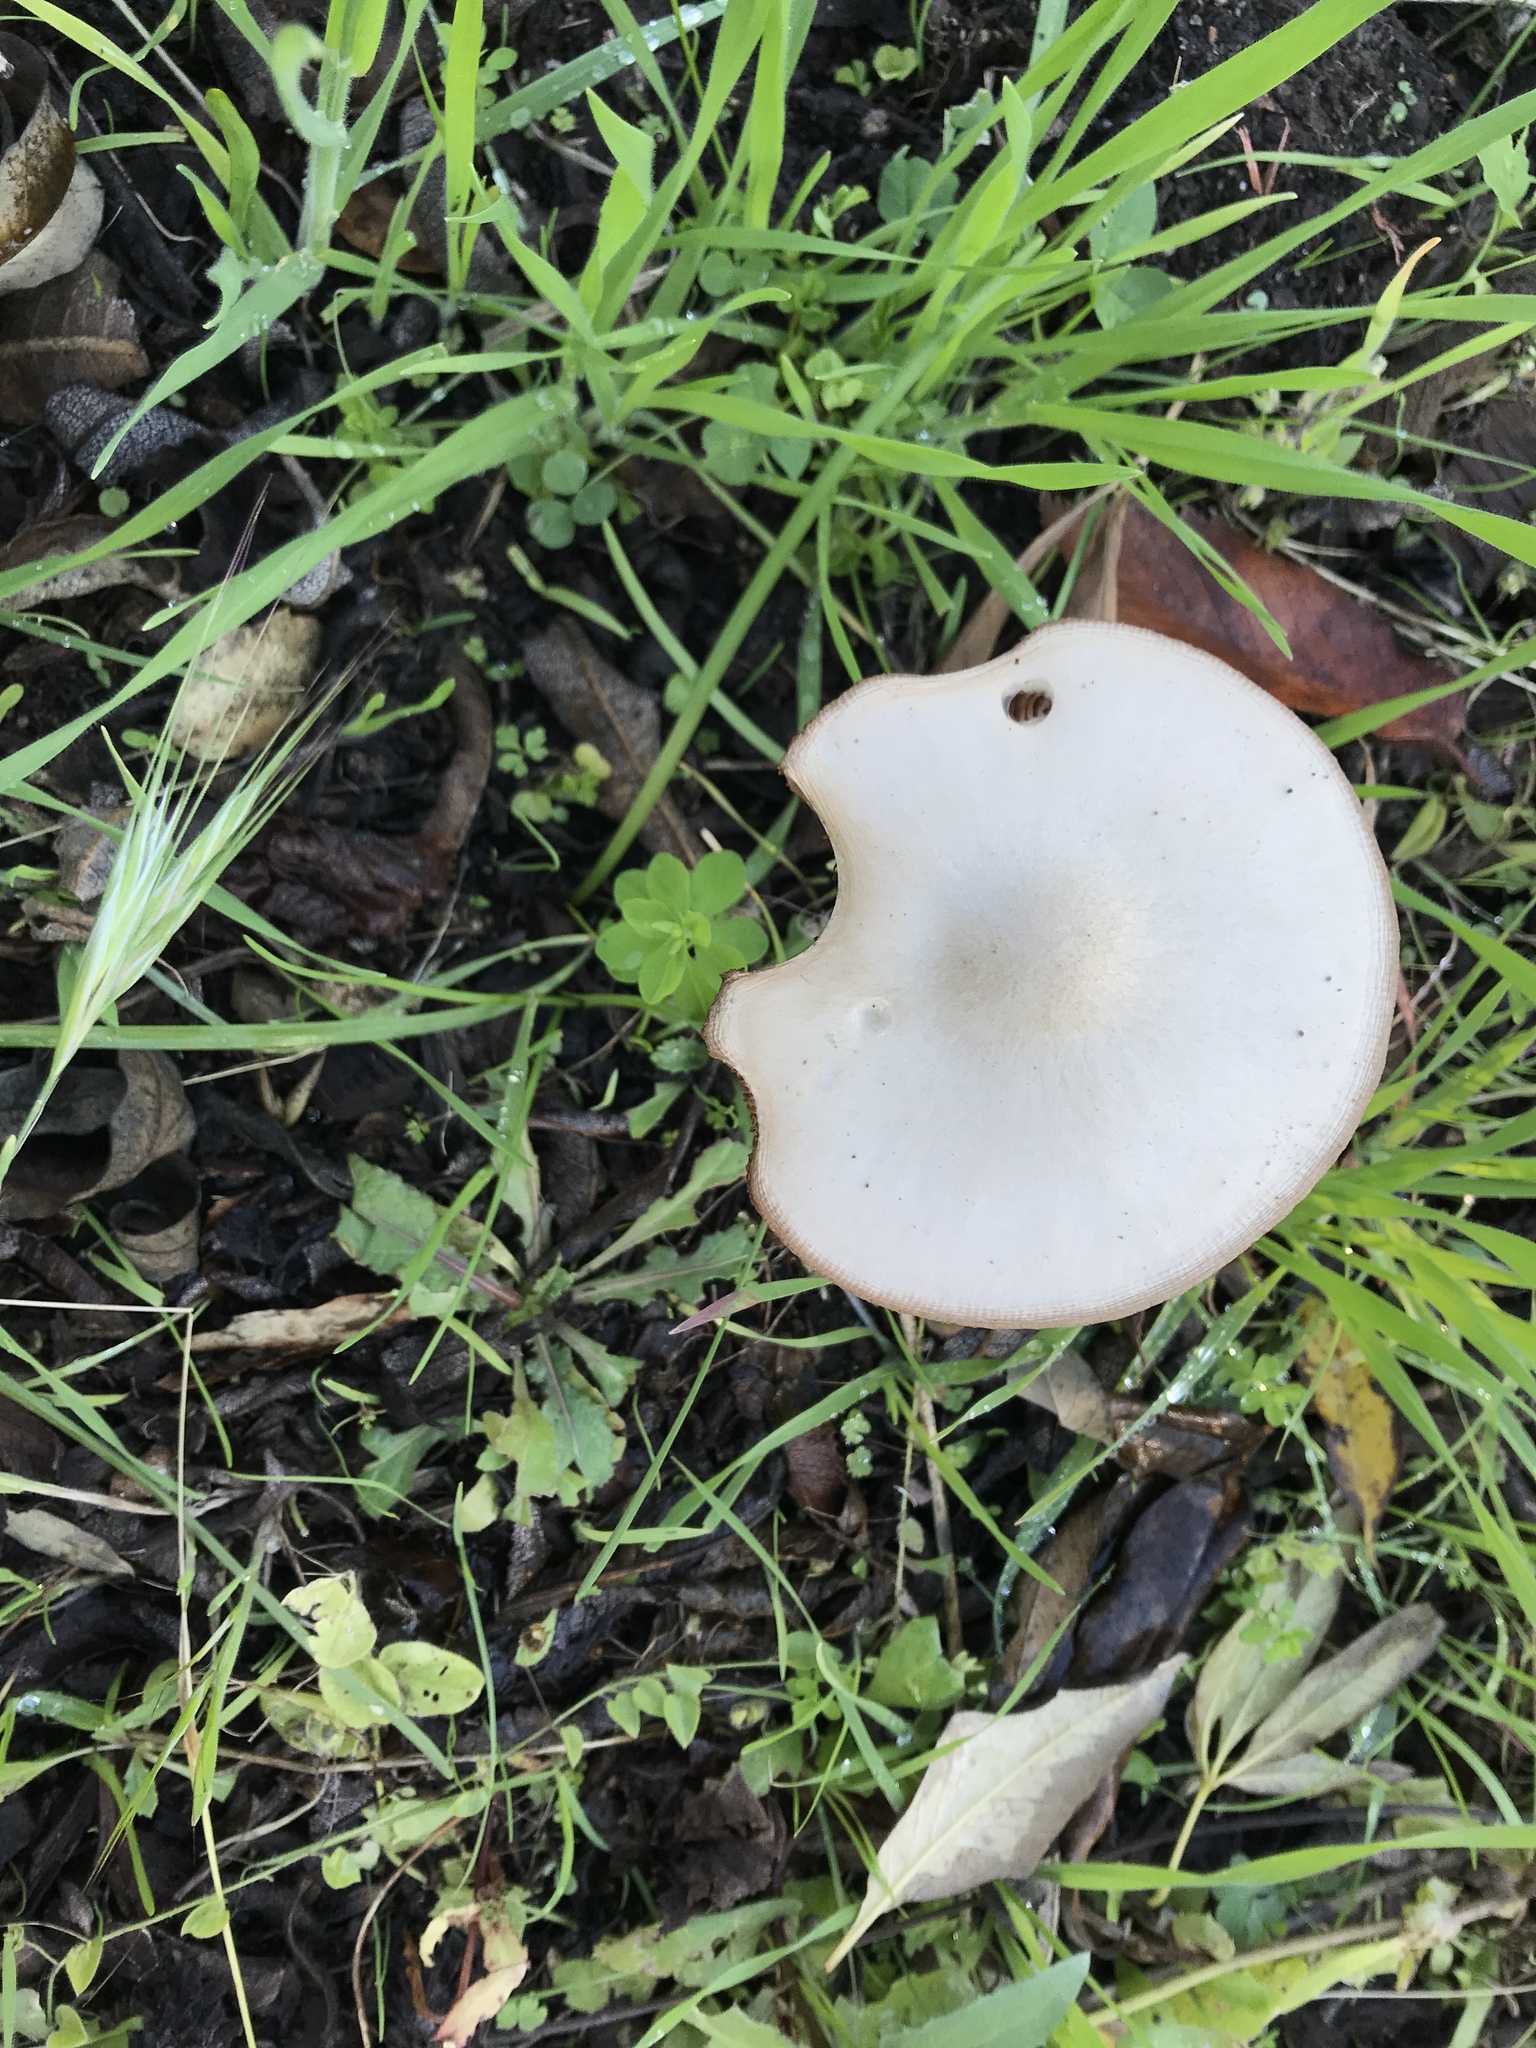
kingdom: Fungi
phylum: Basidiomycota
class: Agaricomycetes
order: Agaricales
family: Pluteaceae
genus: Volvopluteus
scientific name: Volvopluteus gloiocephalus
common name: Stubble rosegill
